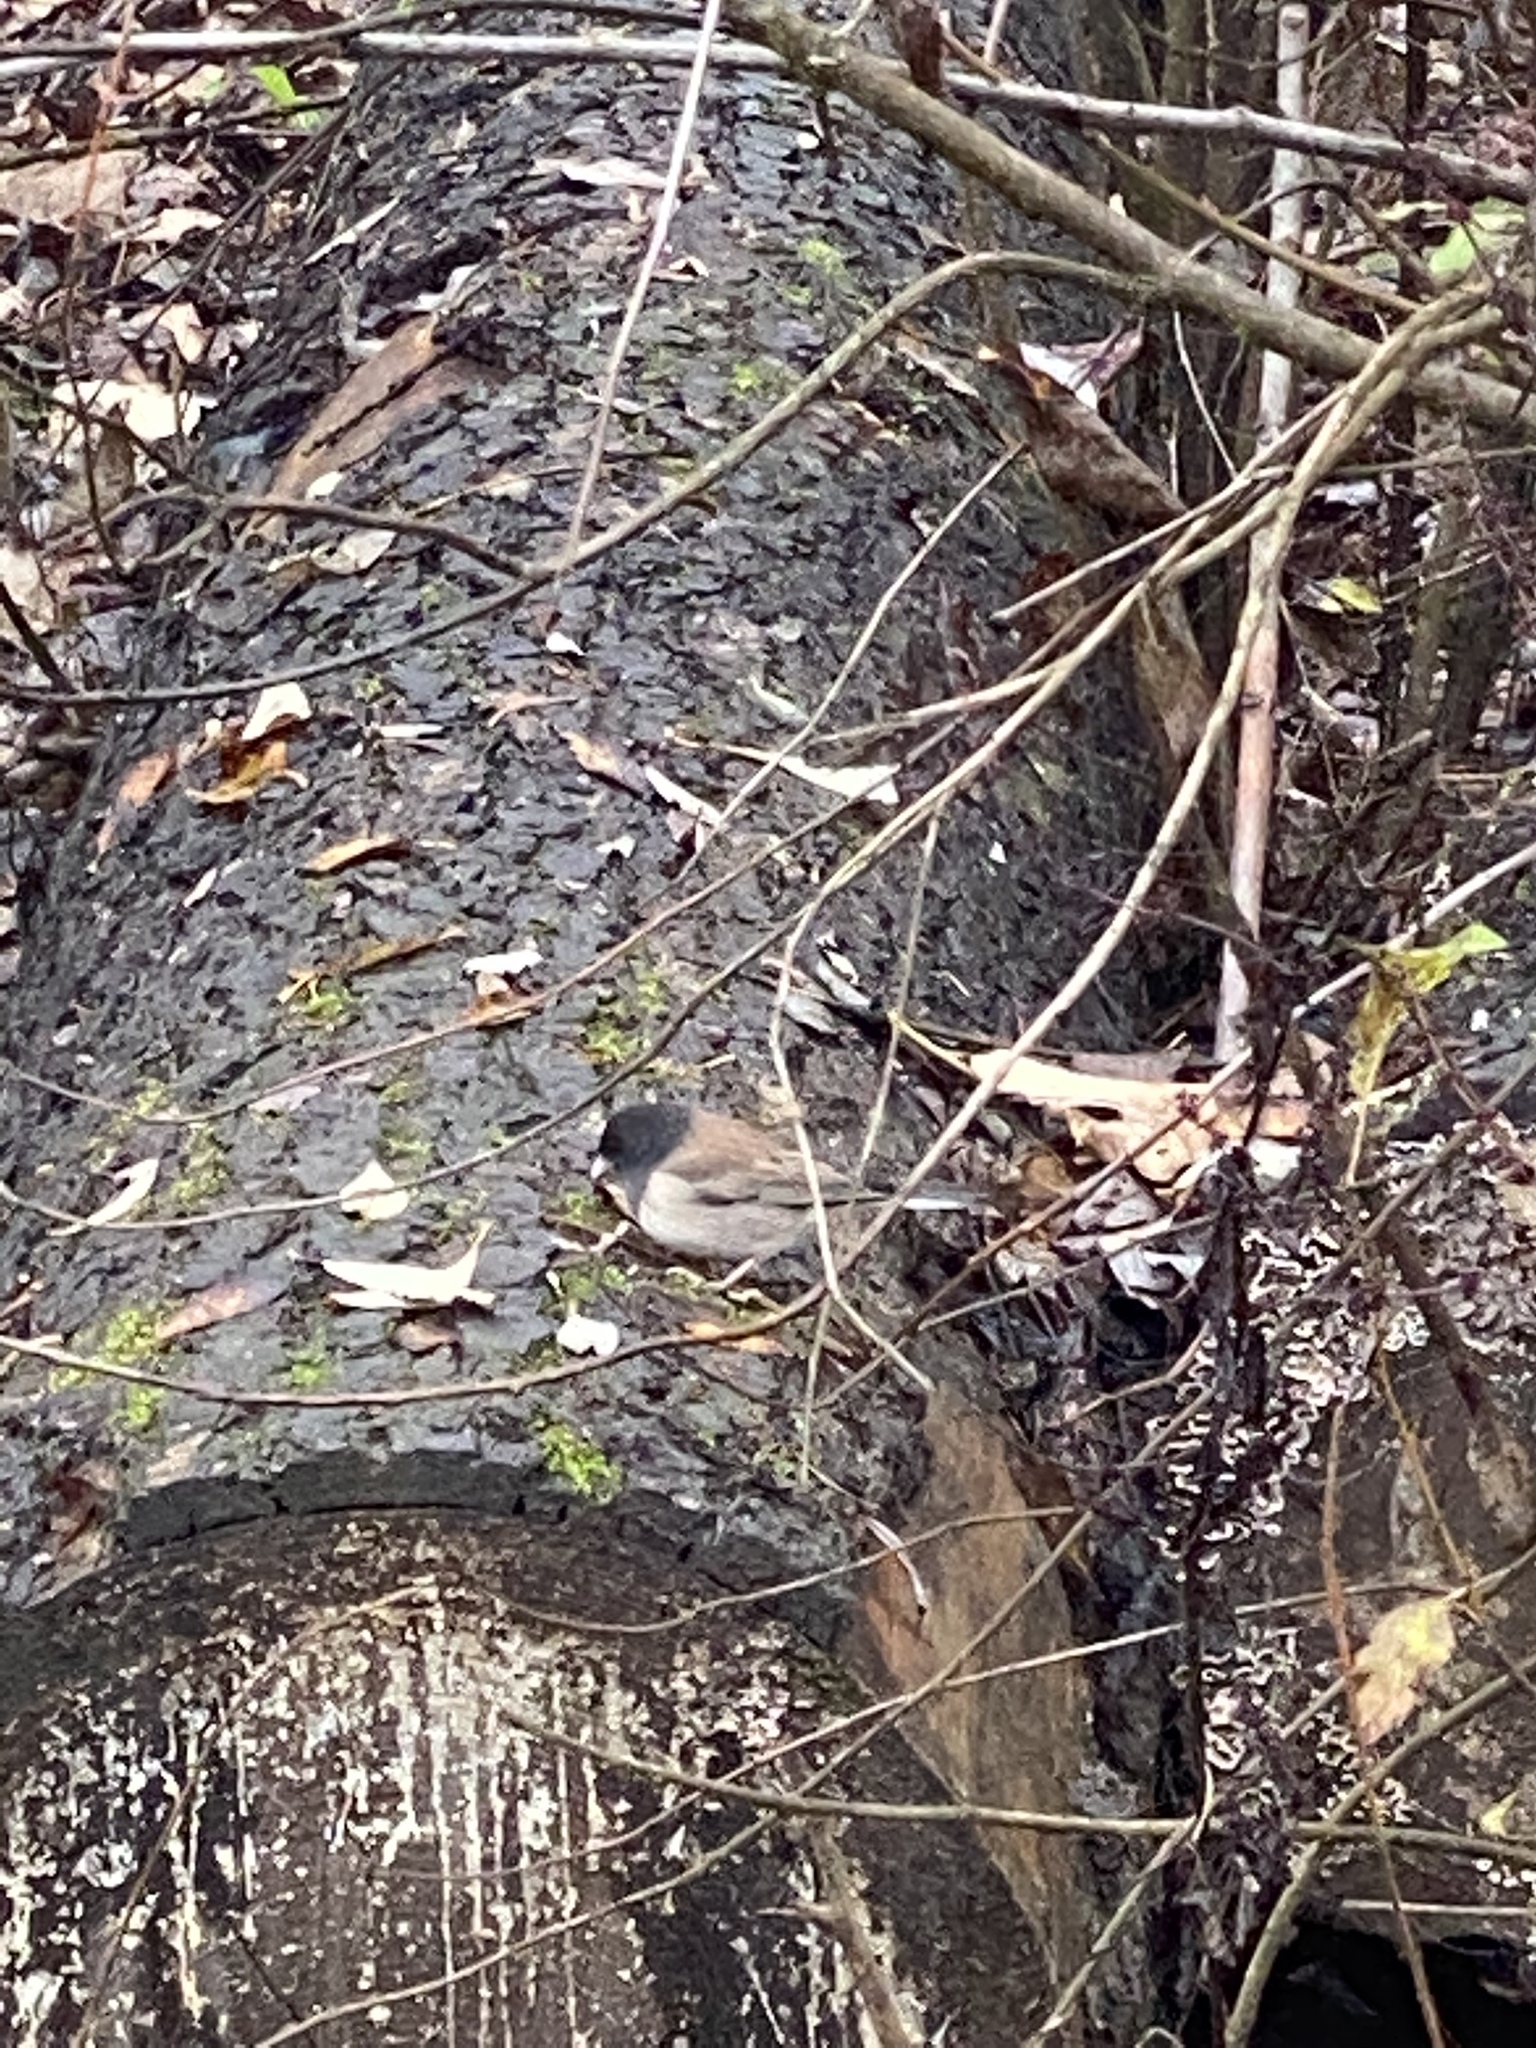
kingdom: Animalia
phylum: Chordata
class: Aves
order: Passeriformes
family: Passerellidae
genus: Junco
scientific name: Junco hyemalis
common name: Dark-eyed junco
